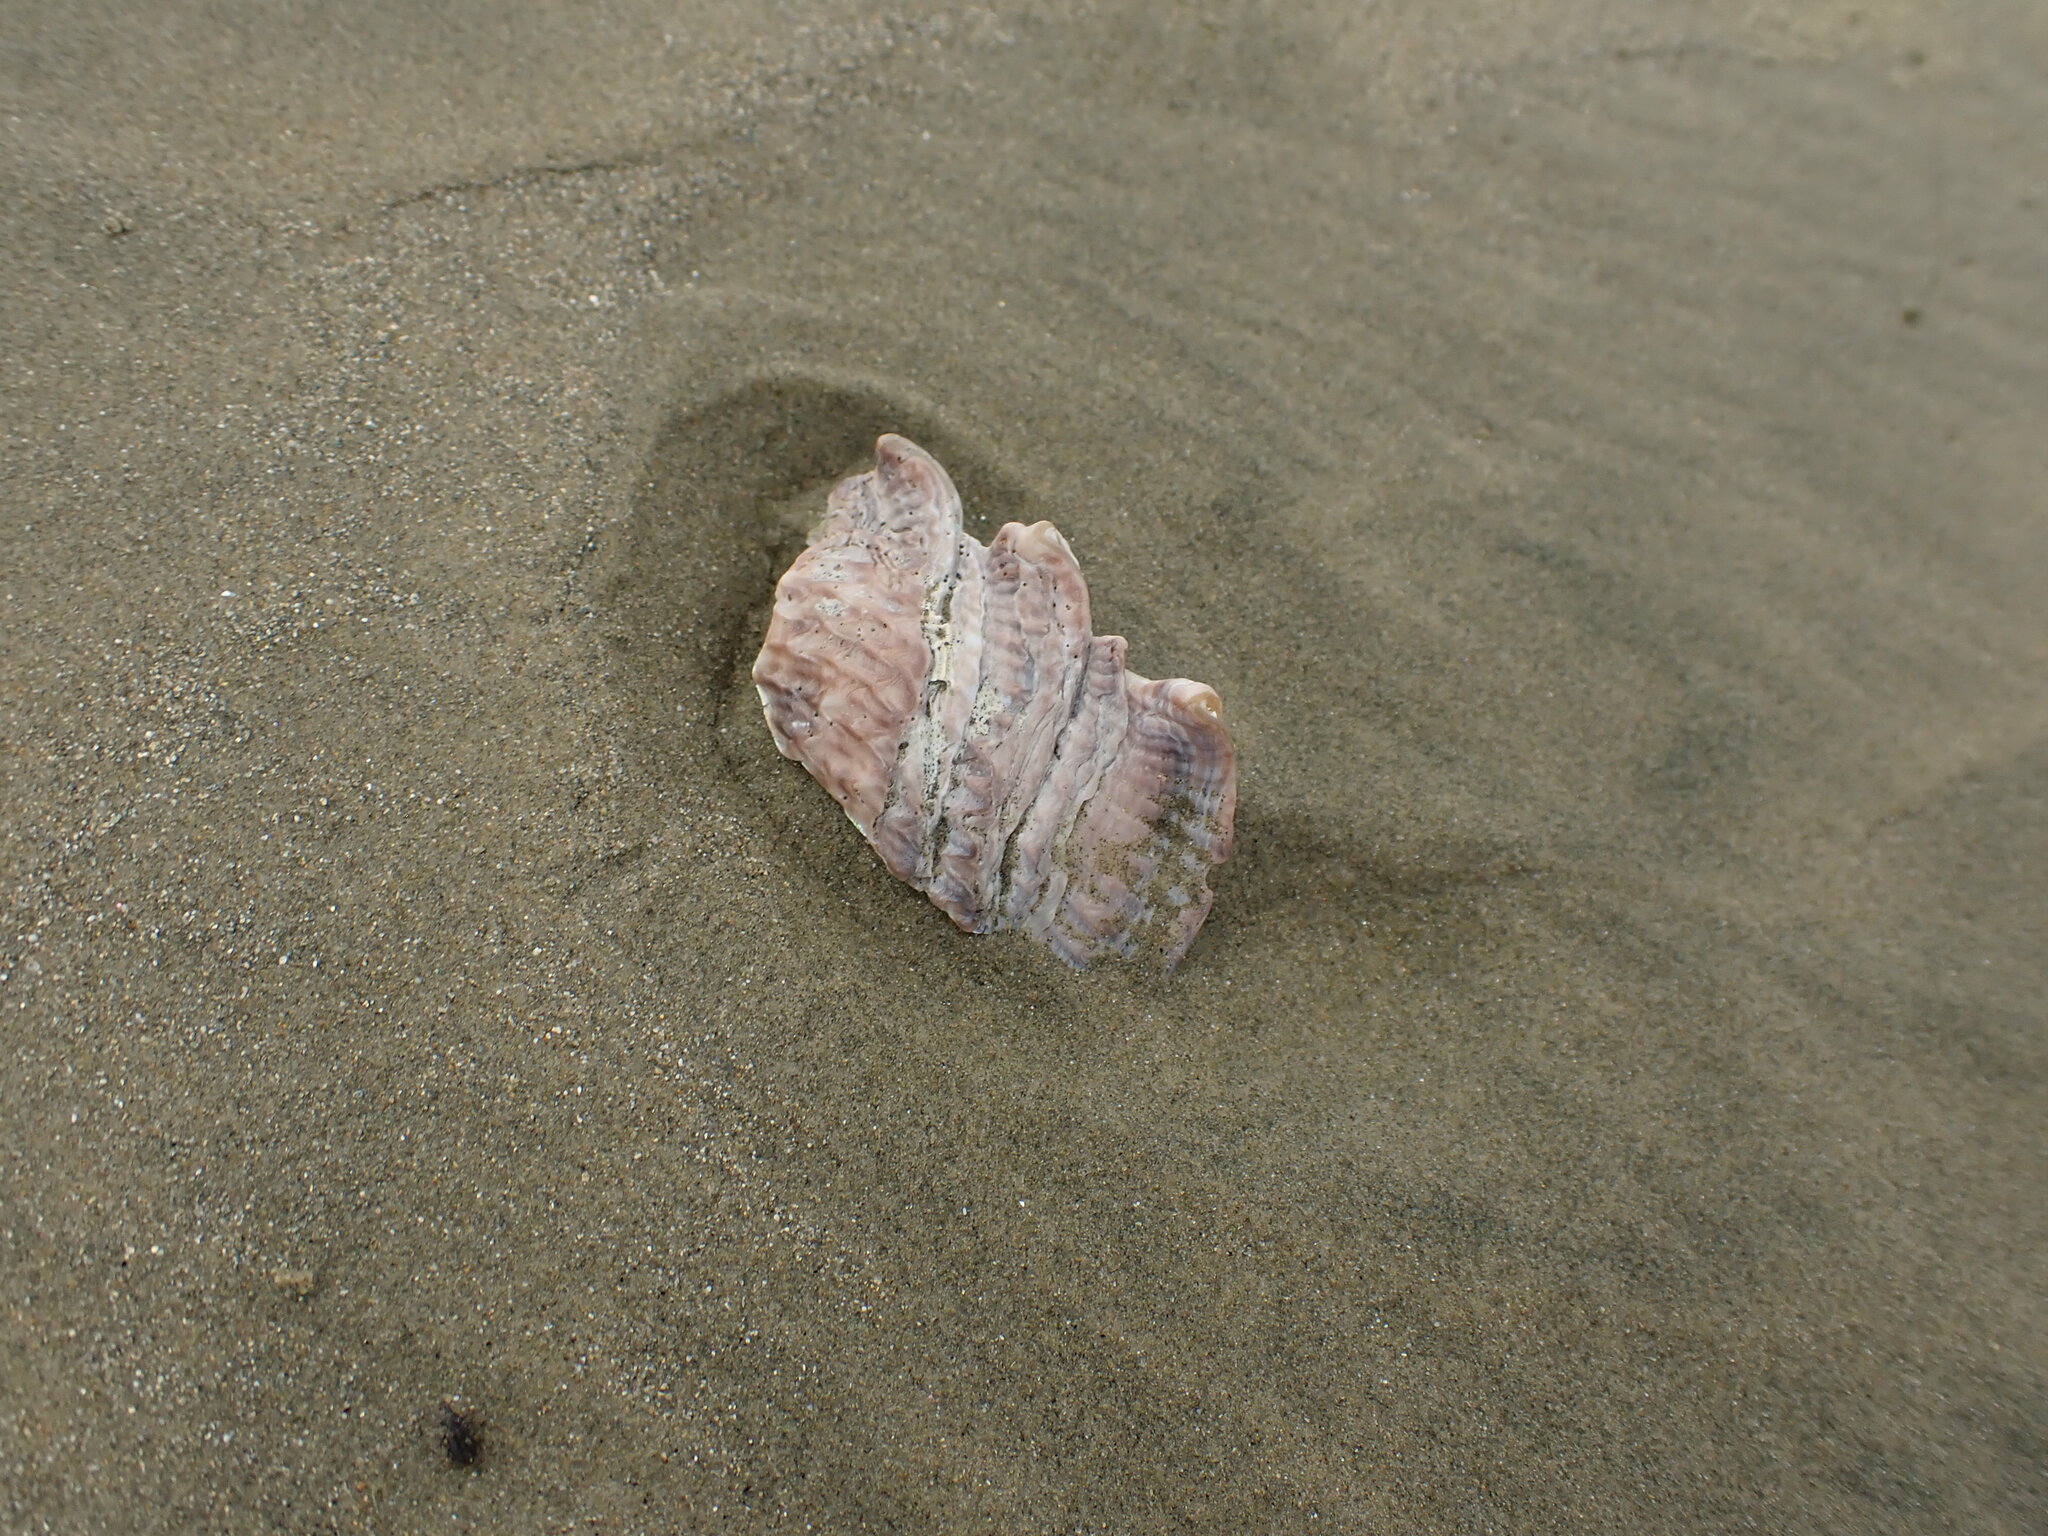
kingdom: Animalia
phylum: Mollusca
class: Gastropoda
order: Trochida
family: Turbinidae
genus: Astraea
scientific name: Astraea heliotropium
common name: Sun shell
